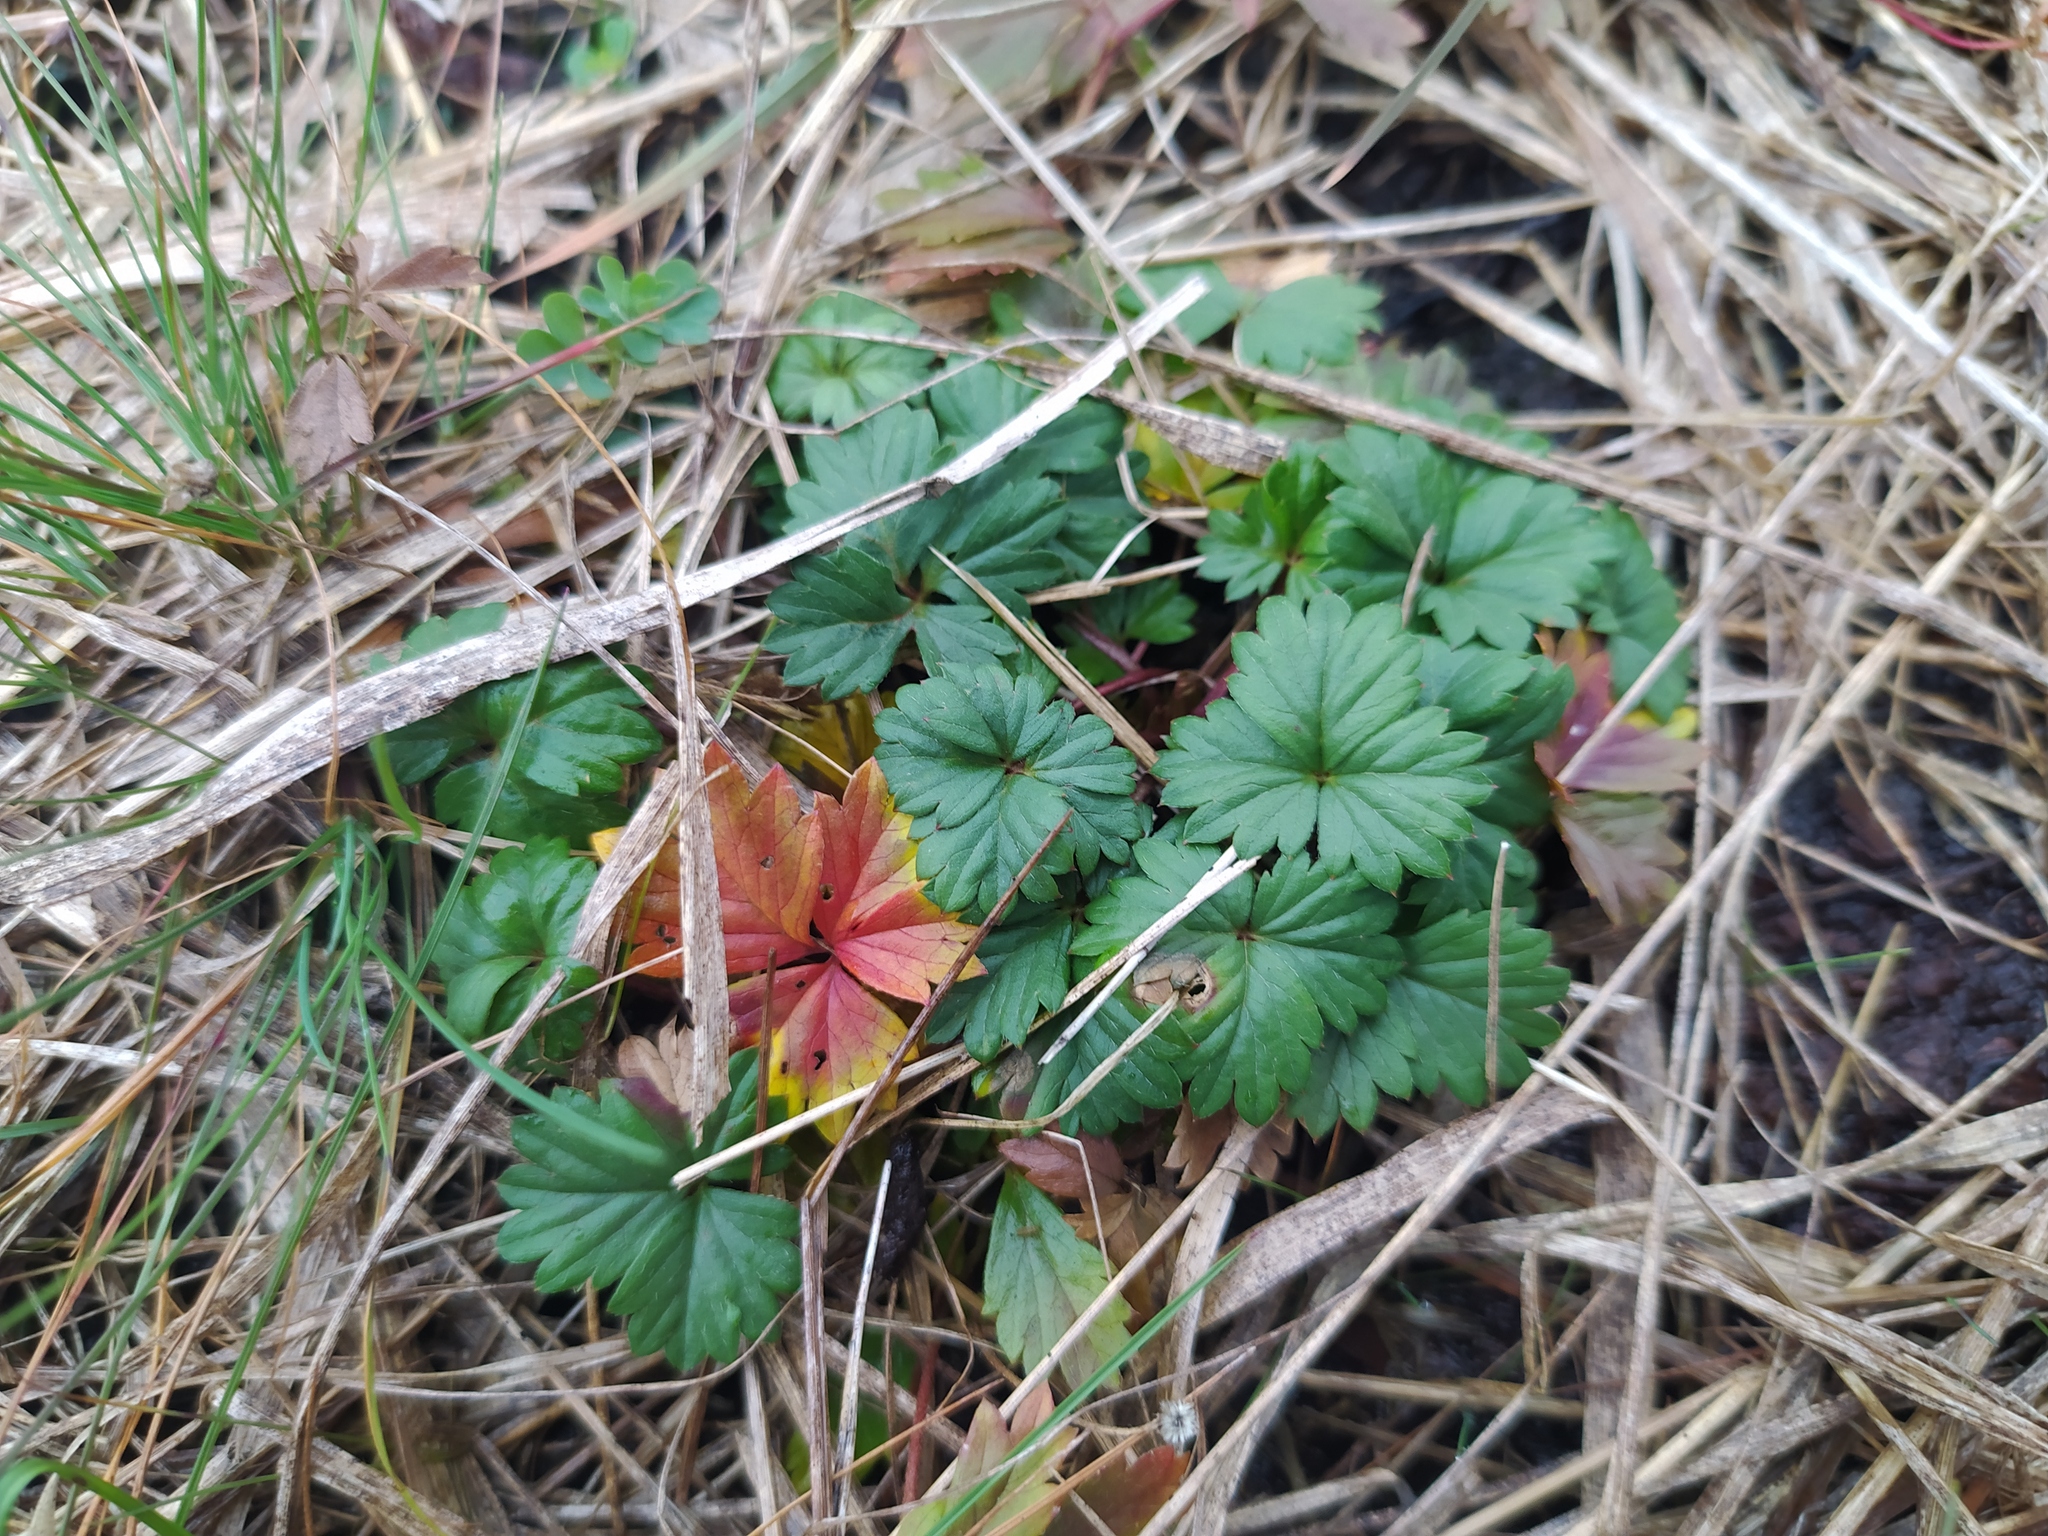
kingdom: Plantae
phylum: Tracheophyta
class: Magnoliopsida
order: Rosales
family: Rosaceae
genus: Potentilla
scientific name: Potentilla anglica
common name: Trailing tormentil
